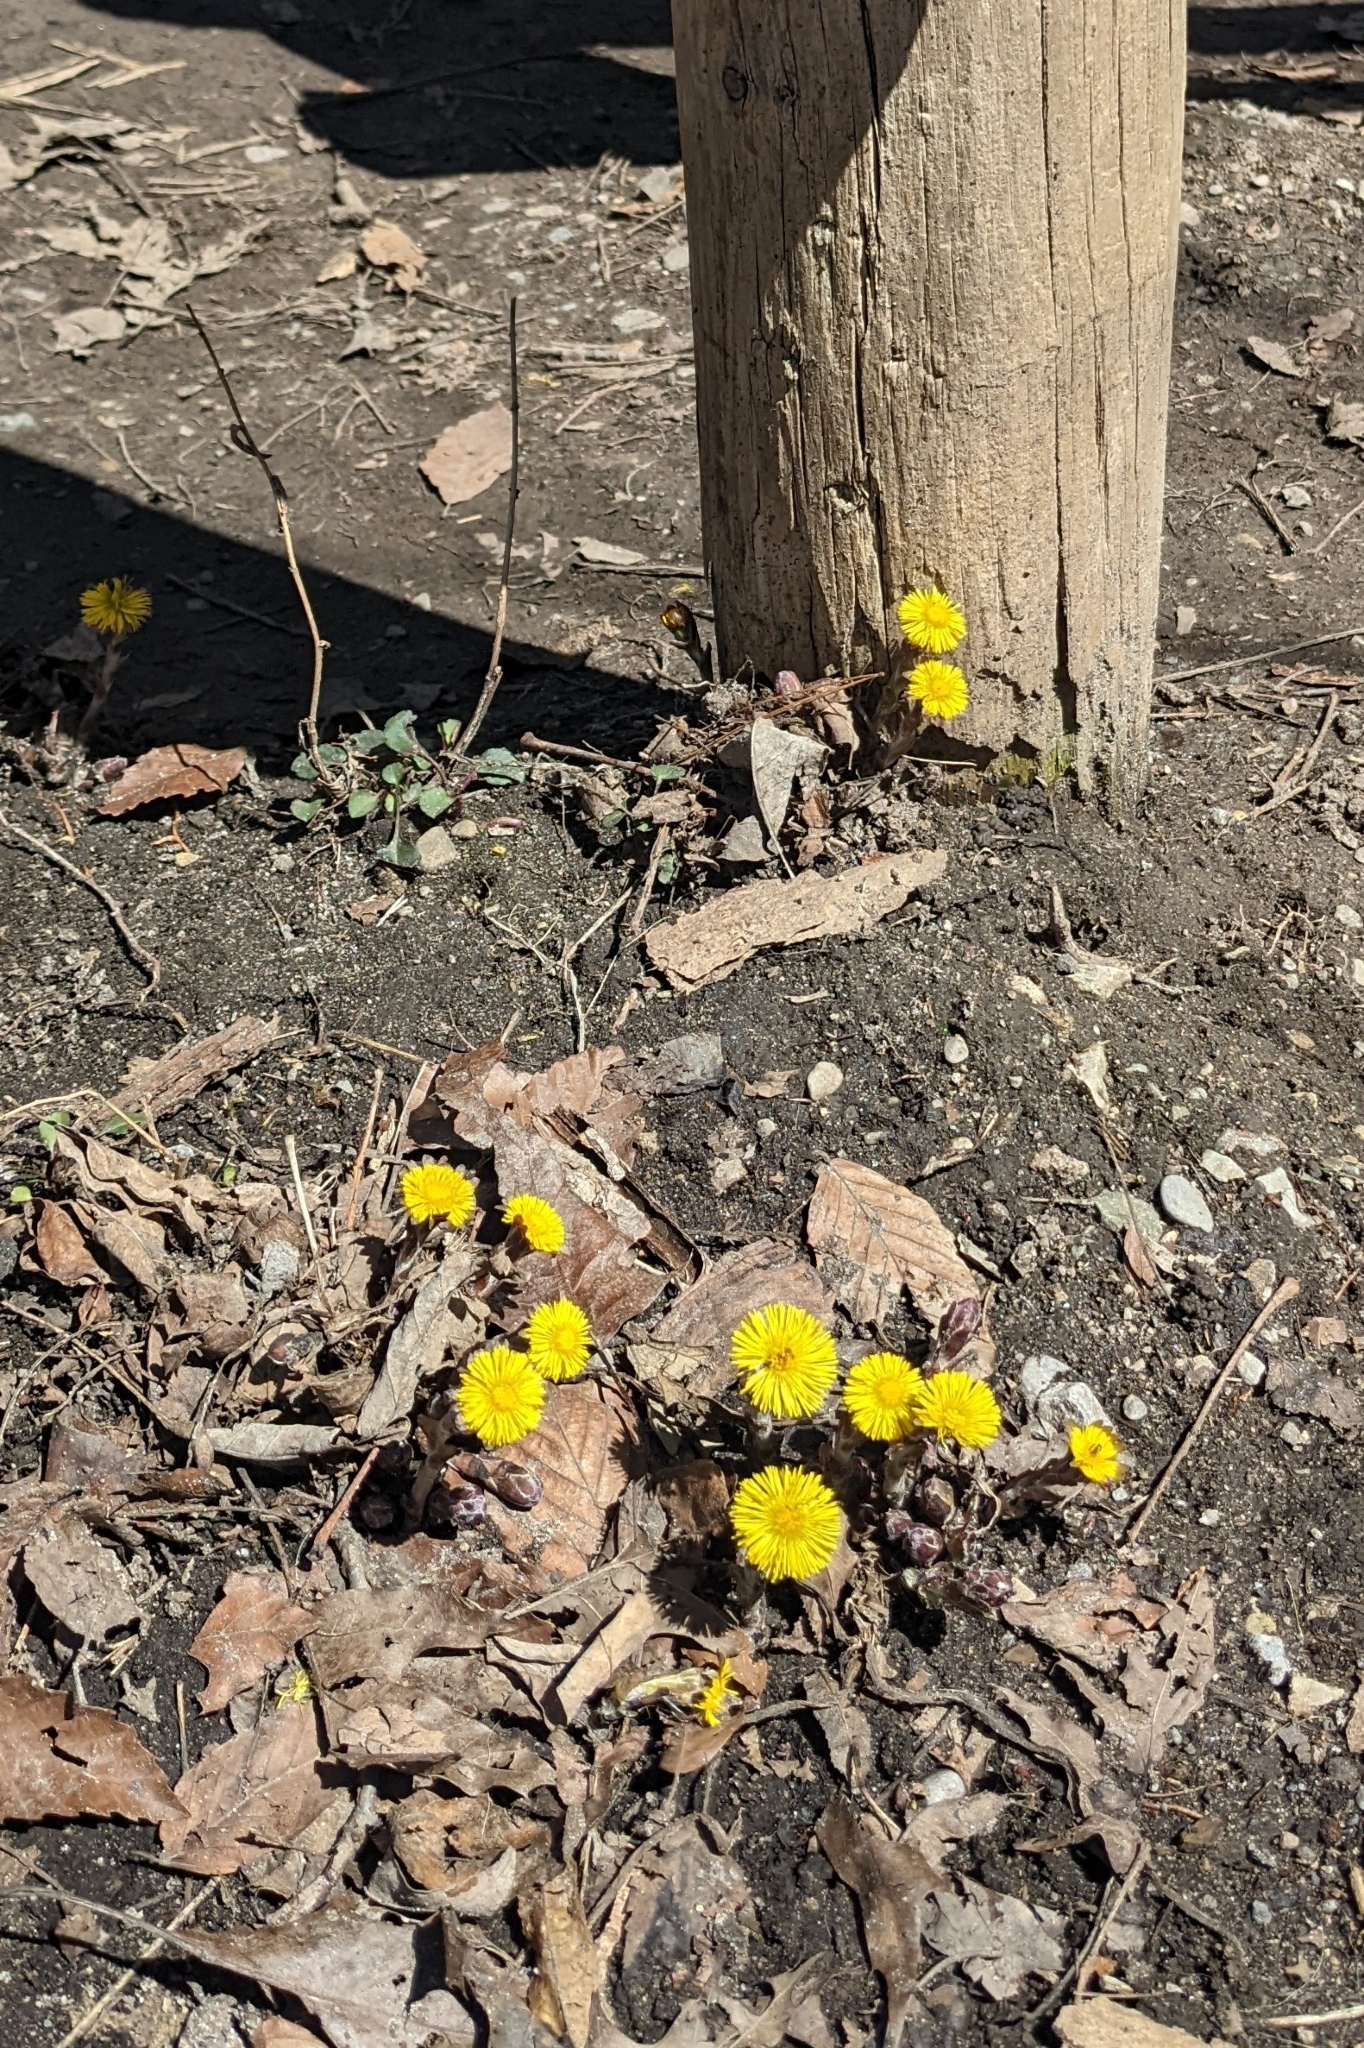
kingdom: Plantae
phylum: Tracheophyta
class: Magnoliopsida
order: Asterales
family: Asteraceae
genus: Tussilago
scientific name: Tussilago farfara
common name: Coltsfoot
